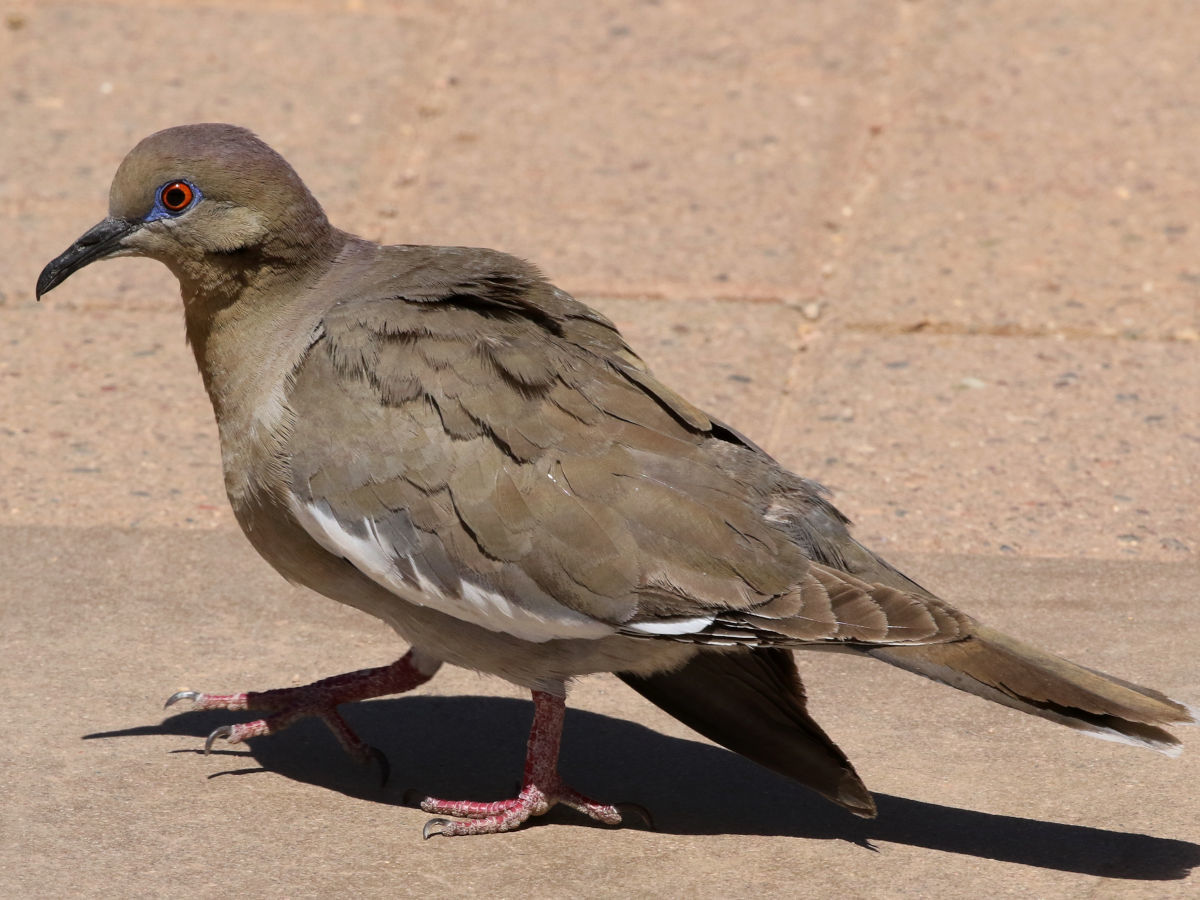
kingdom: Animalia
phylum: Chordata
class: Aves
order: Columbiformes
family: Columbidae
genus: Zenaida
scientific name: Zenaida asiatica
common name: White-winged dove
